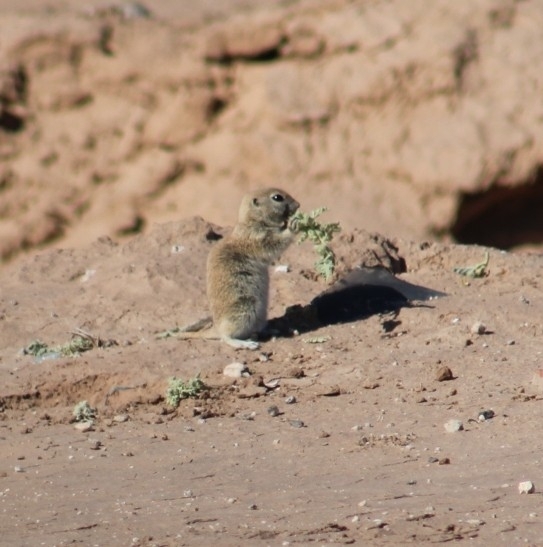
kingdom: Animalia
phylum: Chordata
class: Mammalia
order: Rodentia
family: Sciuridae
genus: Xerospermophilus
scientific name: Xerospermophilus tereticaudus
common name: Round-tailed ground squirrel
